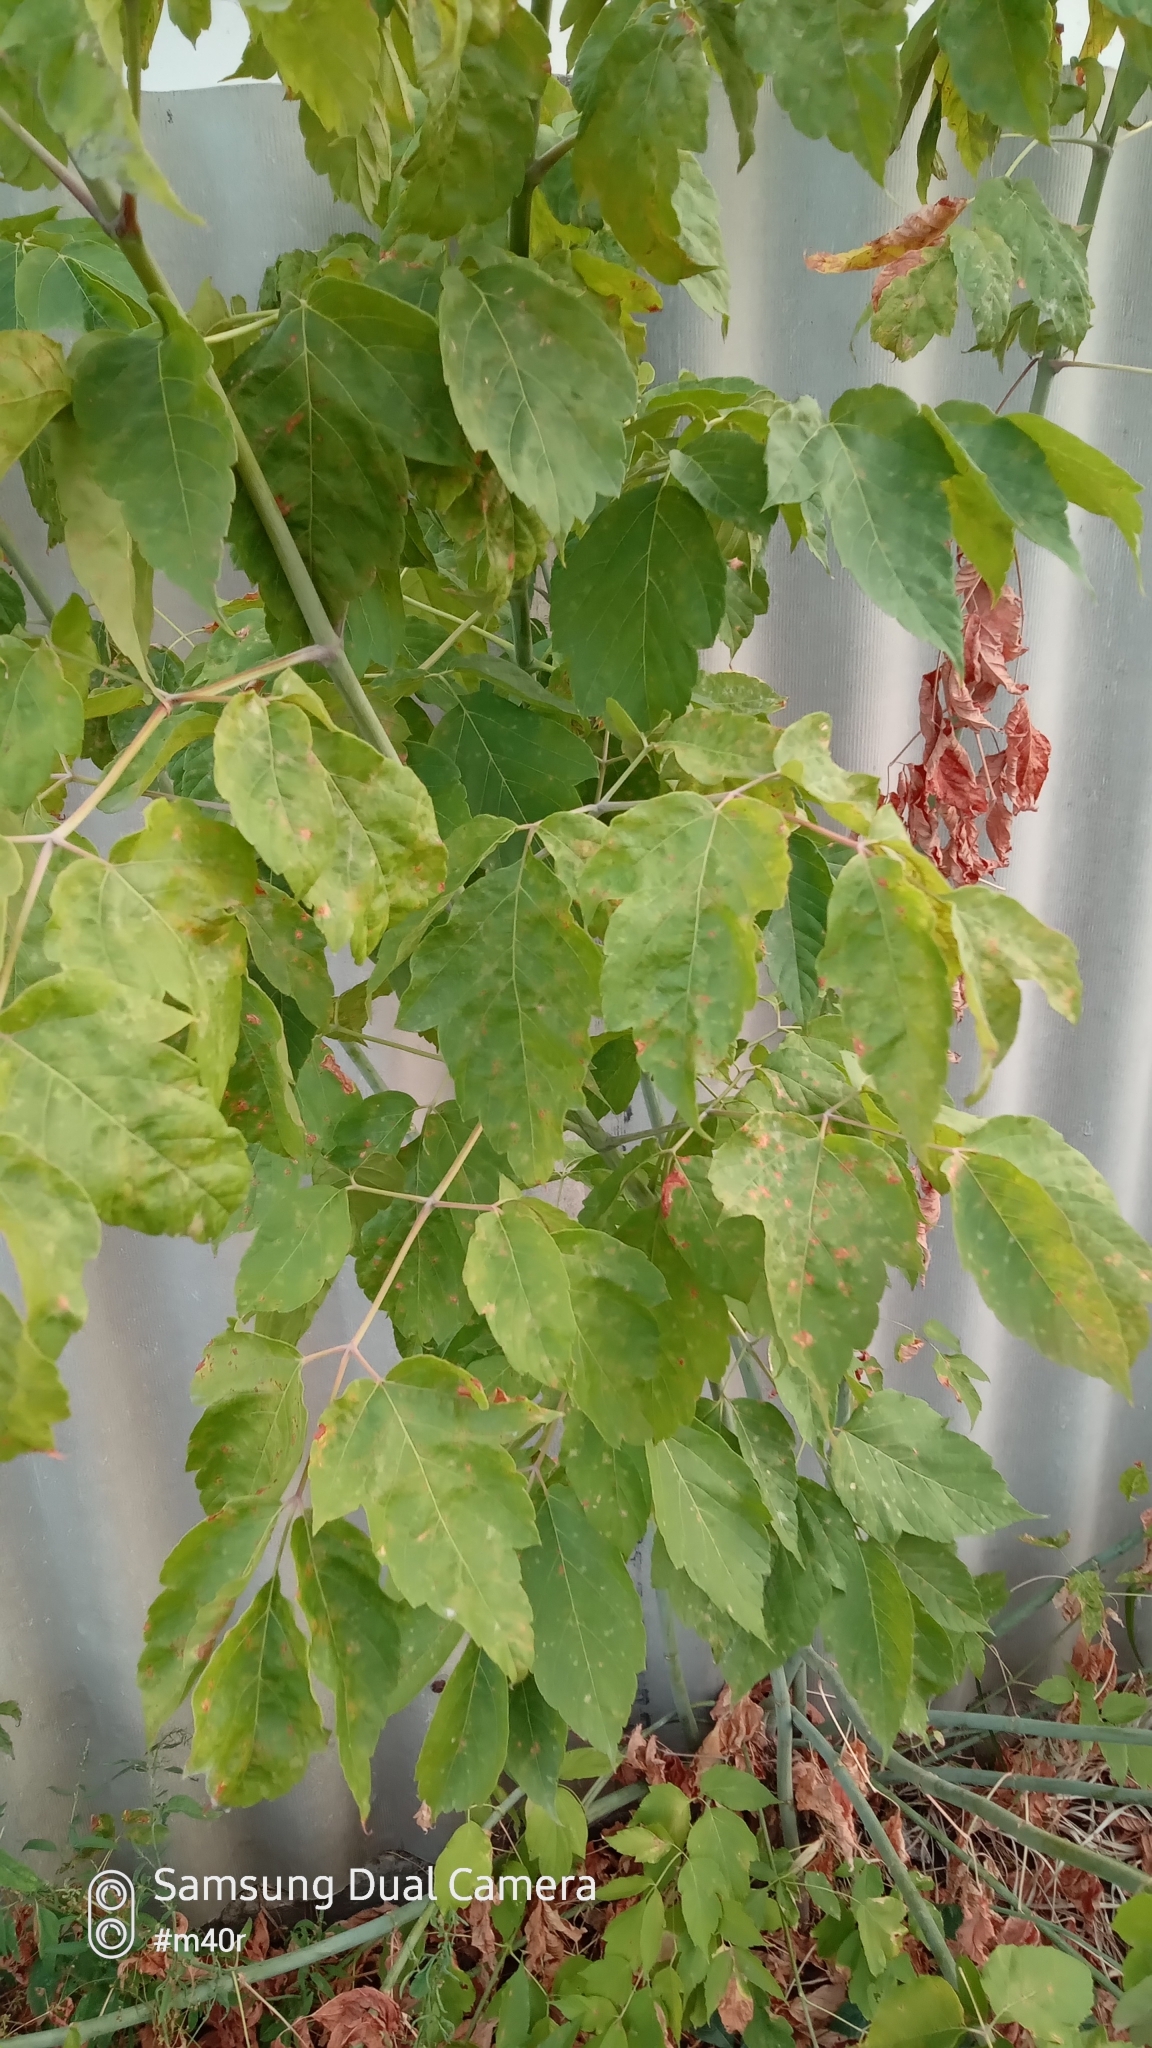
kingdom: Plantae
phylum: Tracheophyta
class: Magnoliopsida
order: Sapindales
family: Sapindaceae
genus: Acer
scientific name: Acer negundo
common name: Ashleaf maple
